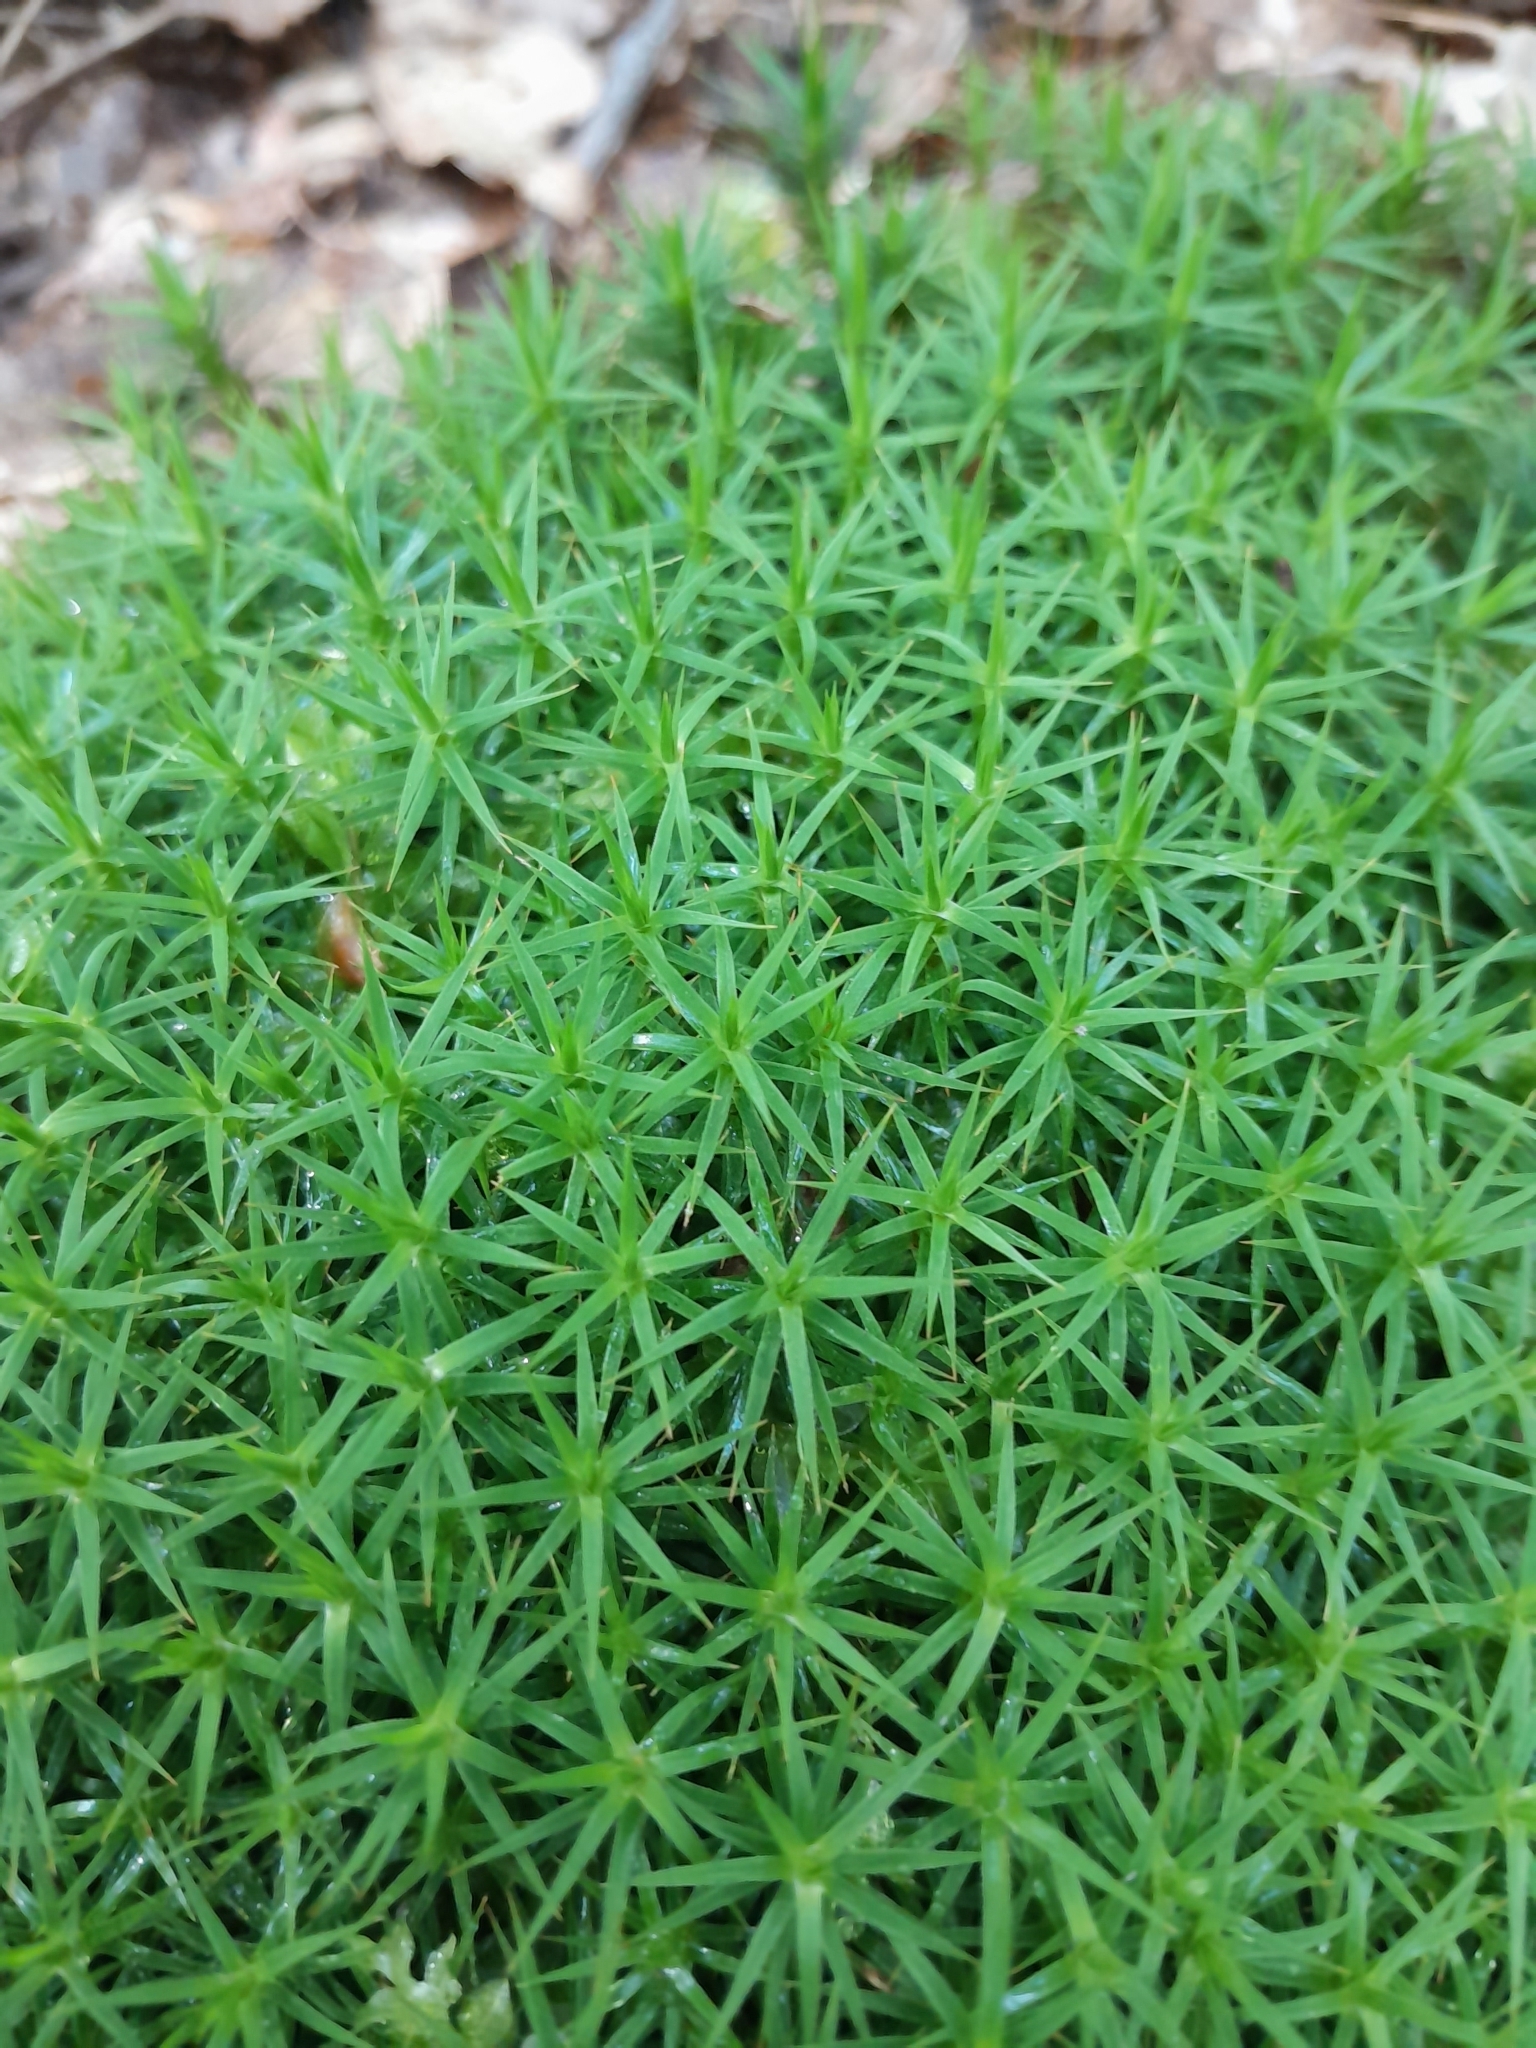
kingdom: Plantae
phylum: Bryophyta
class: Polytrichopsida
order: Polytrichales
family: Polytrichaceae
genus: Polytrichum
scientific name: Polytrichum formosum
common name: Bank haircap moss
